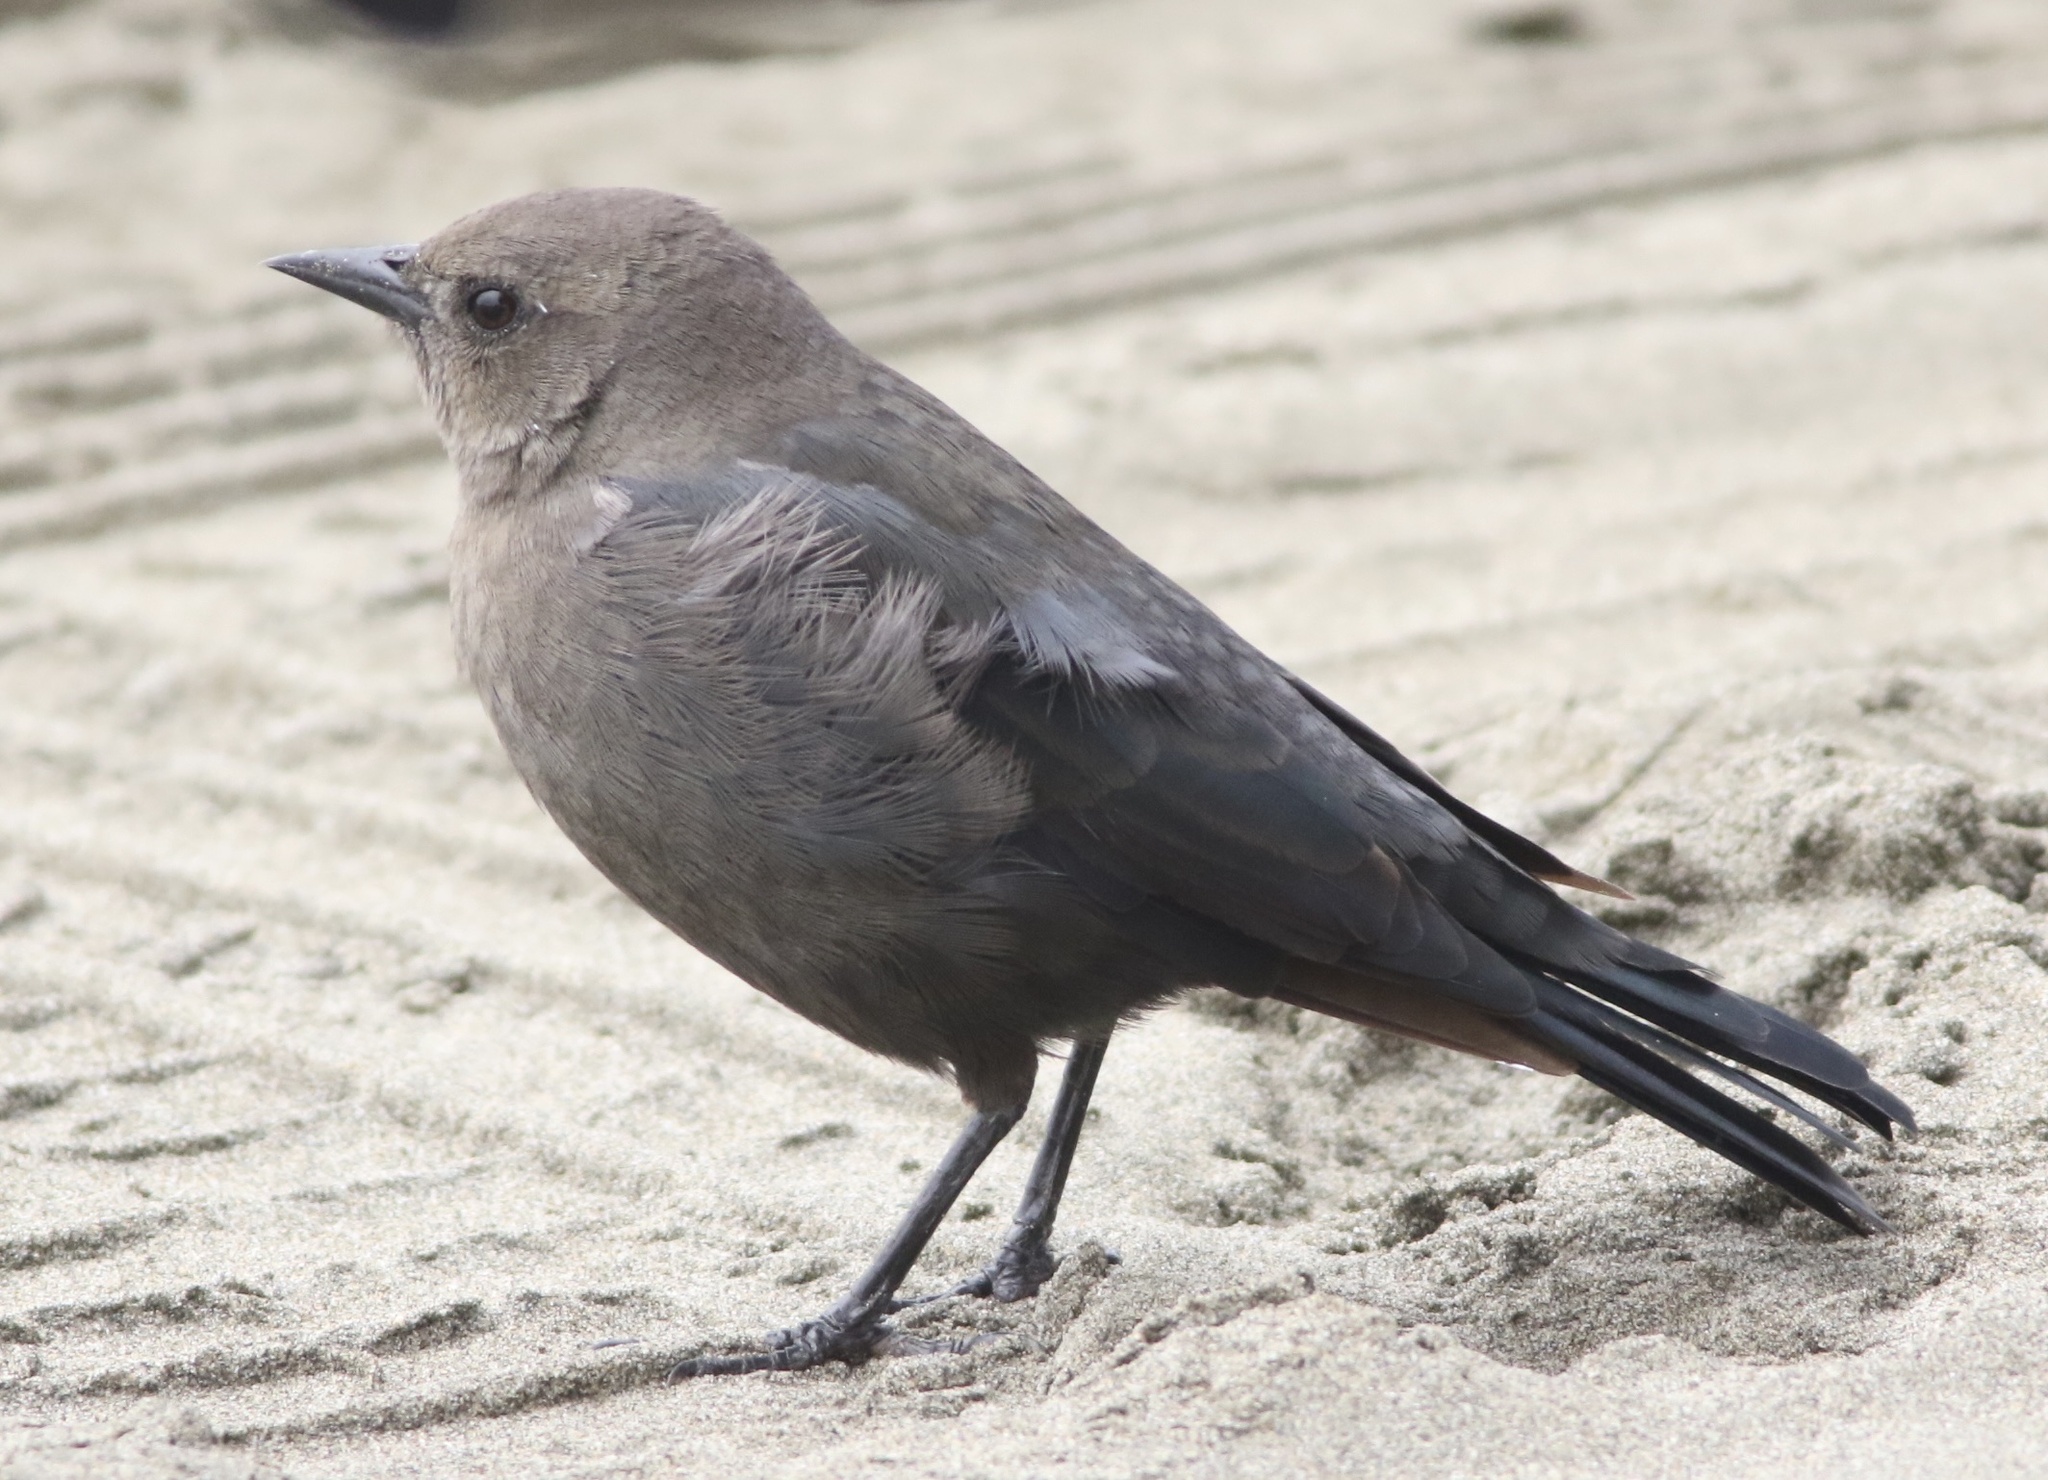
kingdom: Animalia
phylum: Chordata
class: Aves
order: Passeriformes
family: Icteridae
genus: Euphagus
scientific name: Euphagus cyanocephalus
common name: Brewer's blackbird
